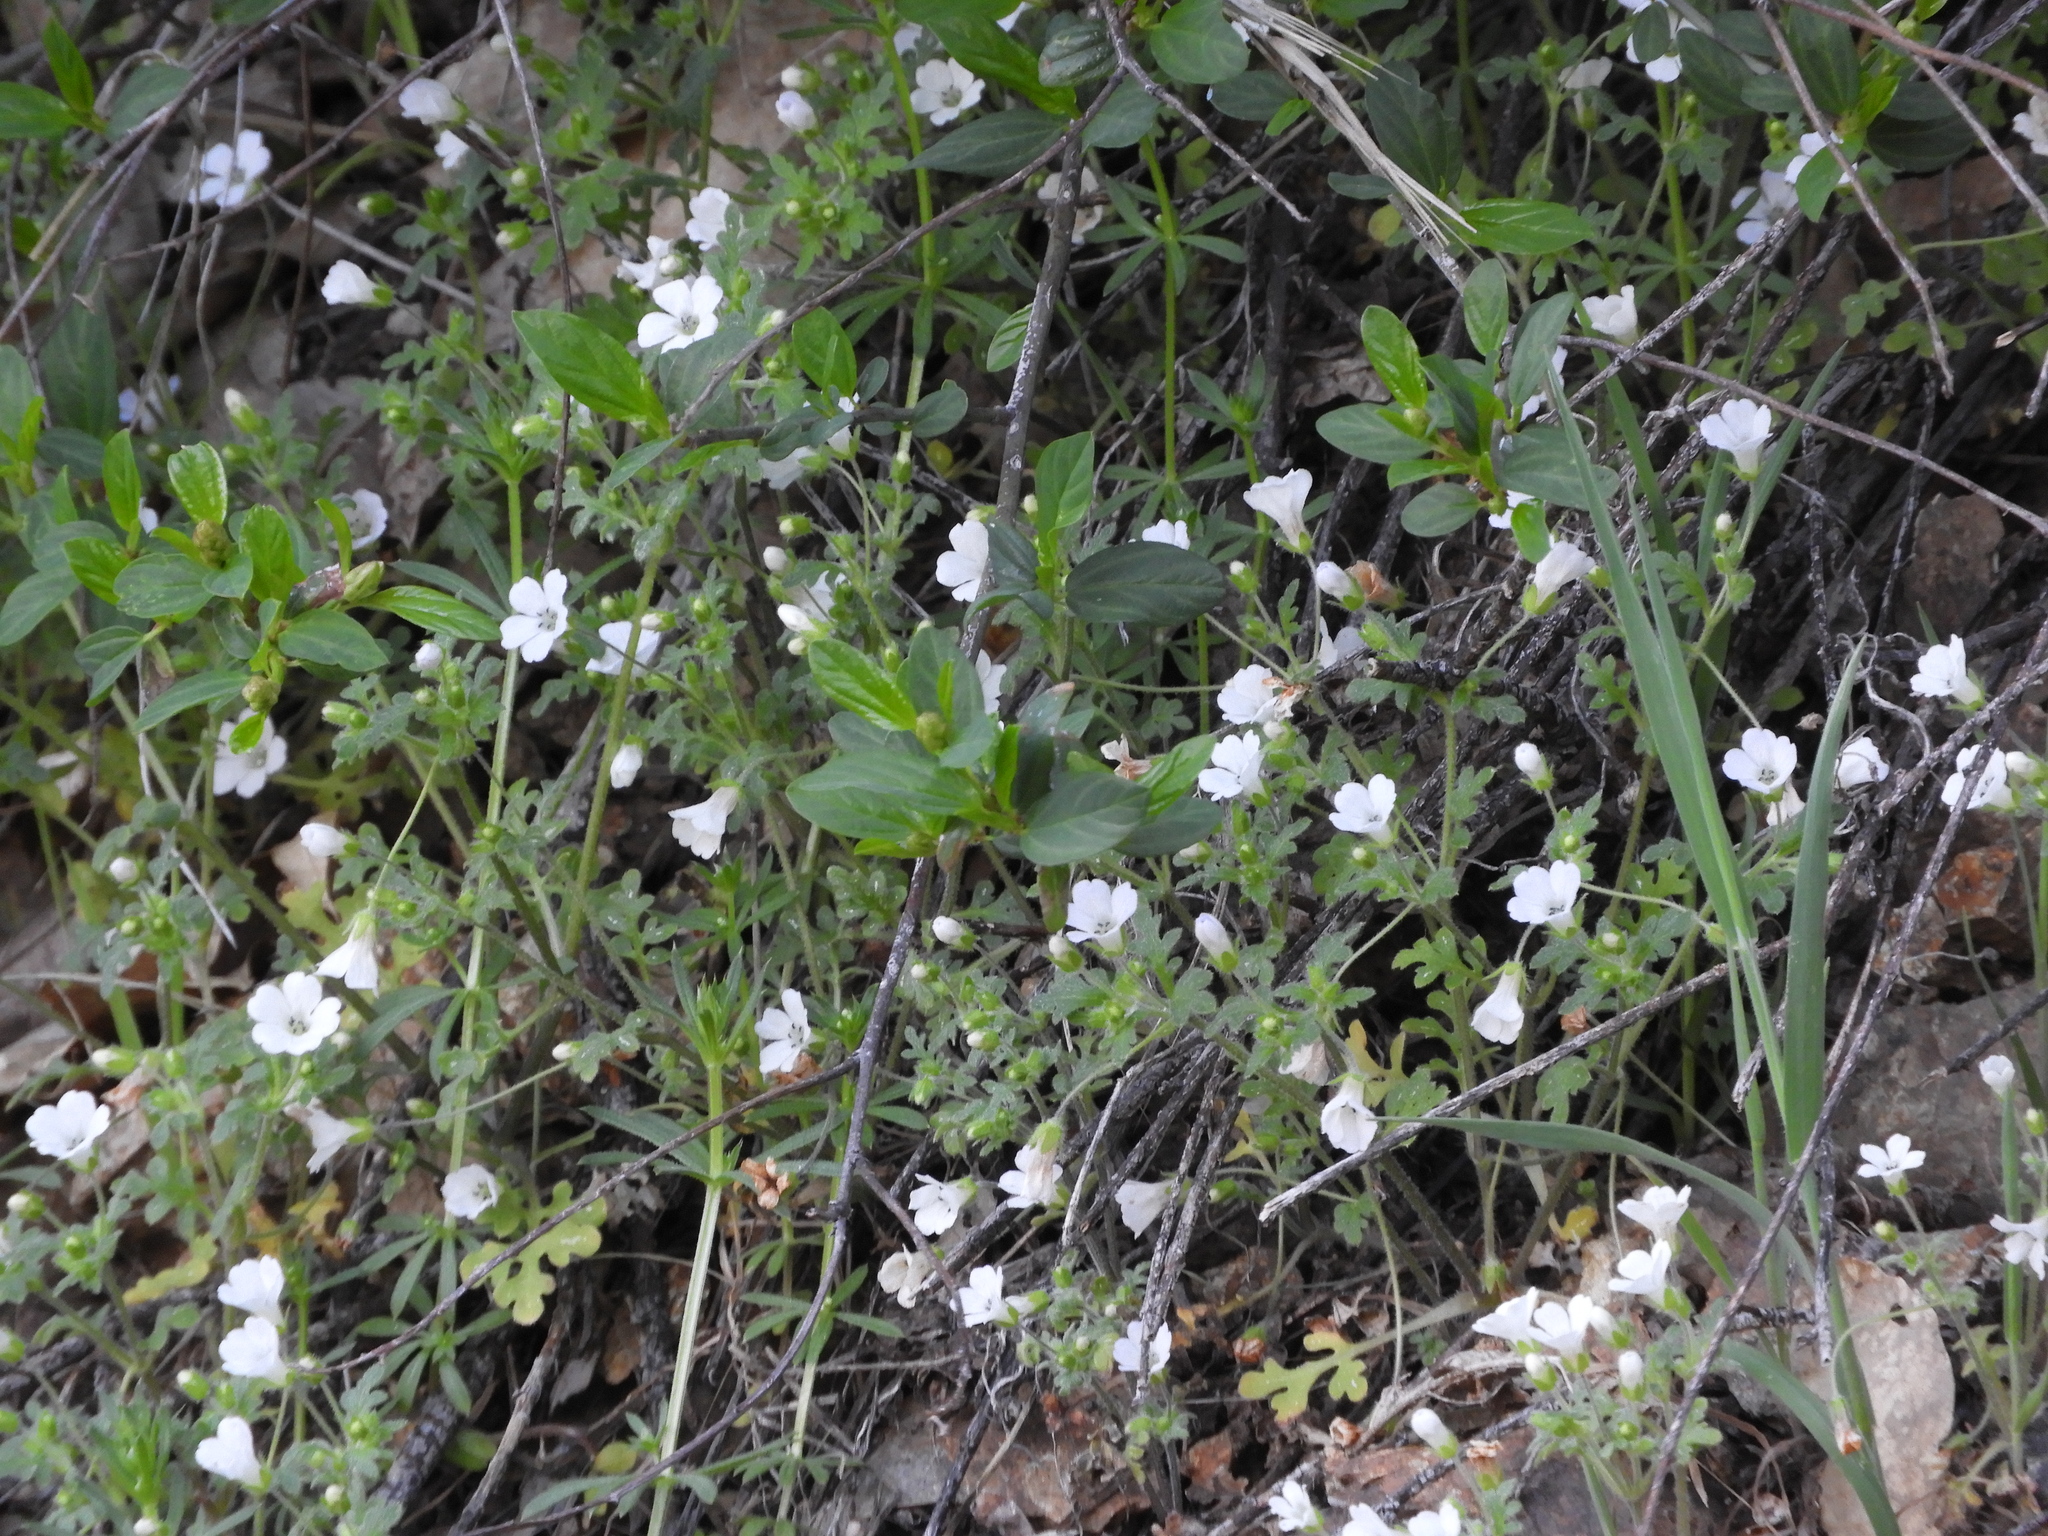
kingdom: Plantae
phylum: Tracheophyta
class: Magnoliopsida
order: Boraginales
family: Hydrophyllaceae
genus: Nemophila
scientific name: Nemophila heterophylla
